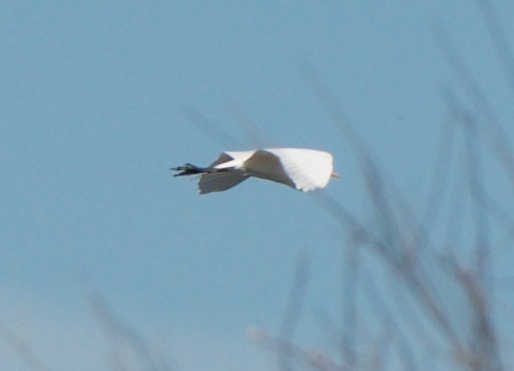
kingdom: Animalia
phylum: Chordata
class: Aves
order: Pelecaniformes
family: Ardeidae
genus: Ardea
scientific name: Ardea alba
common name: Great egret
